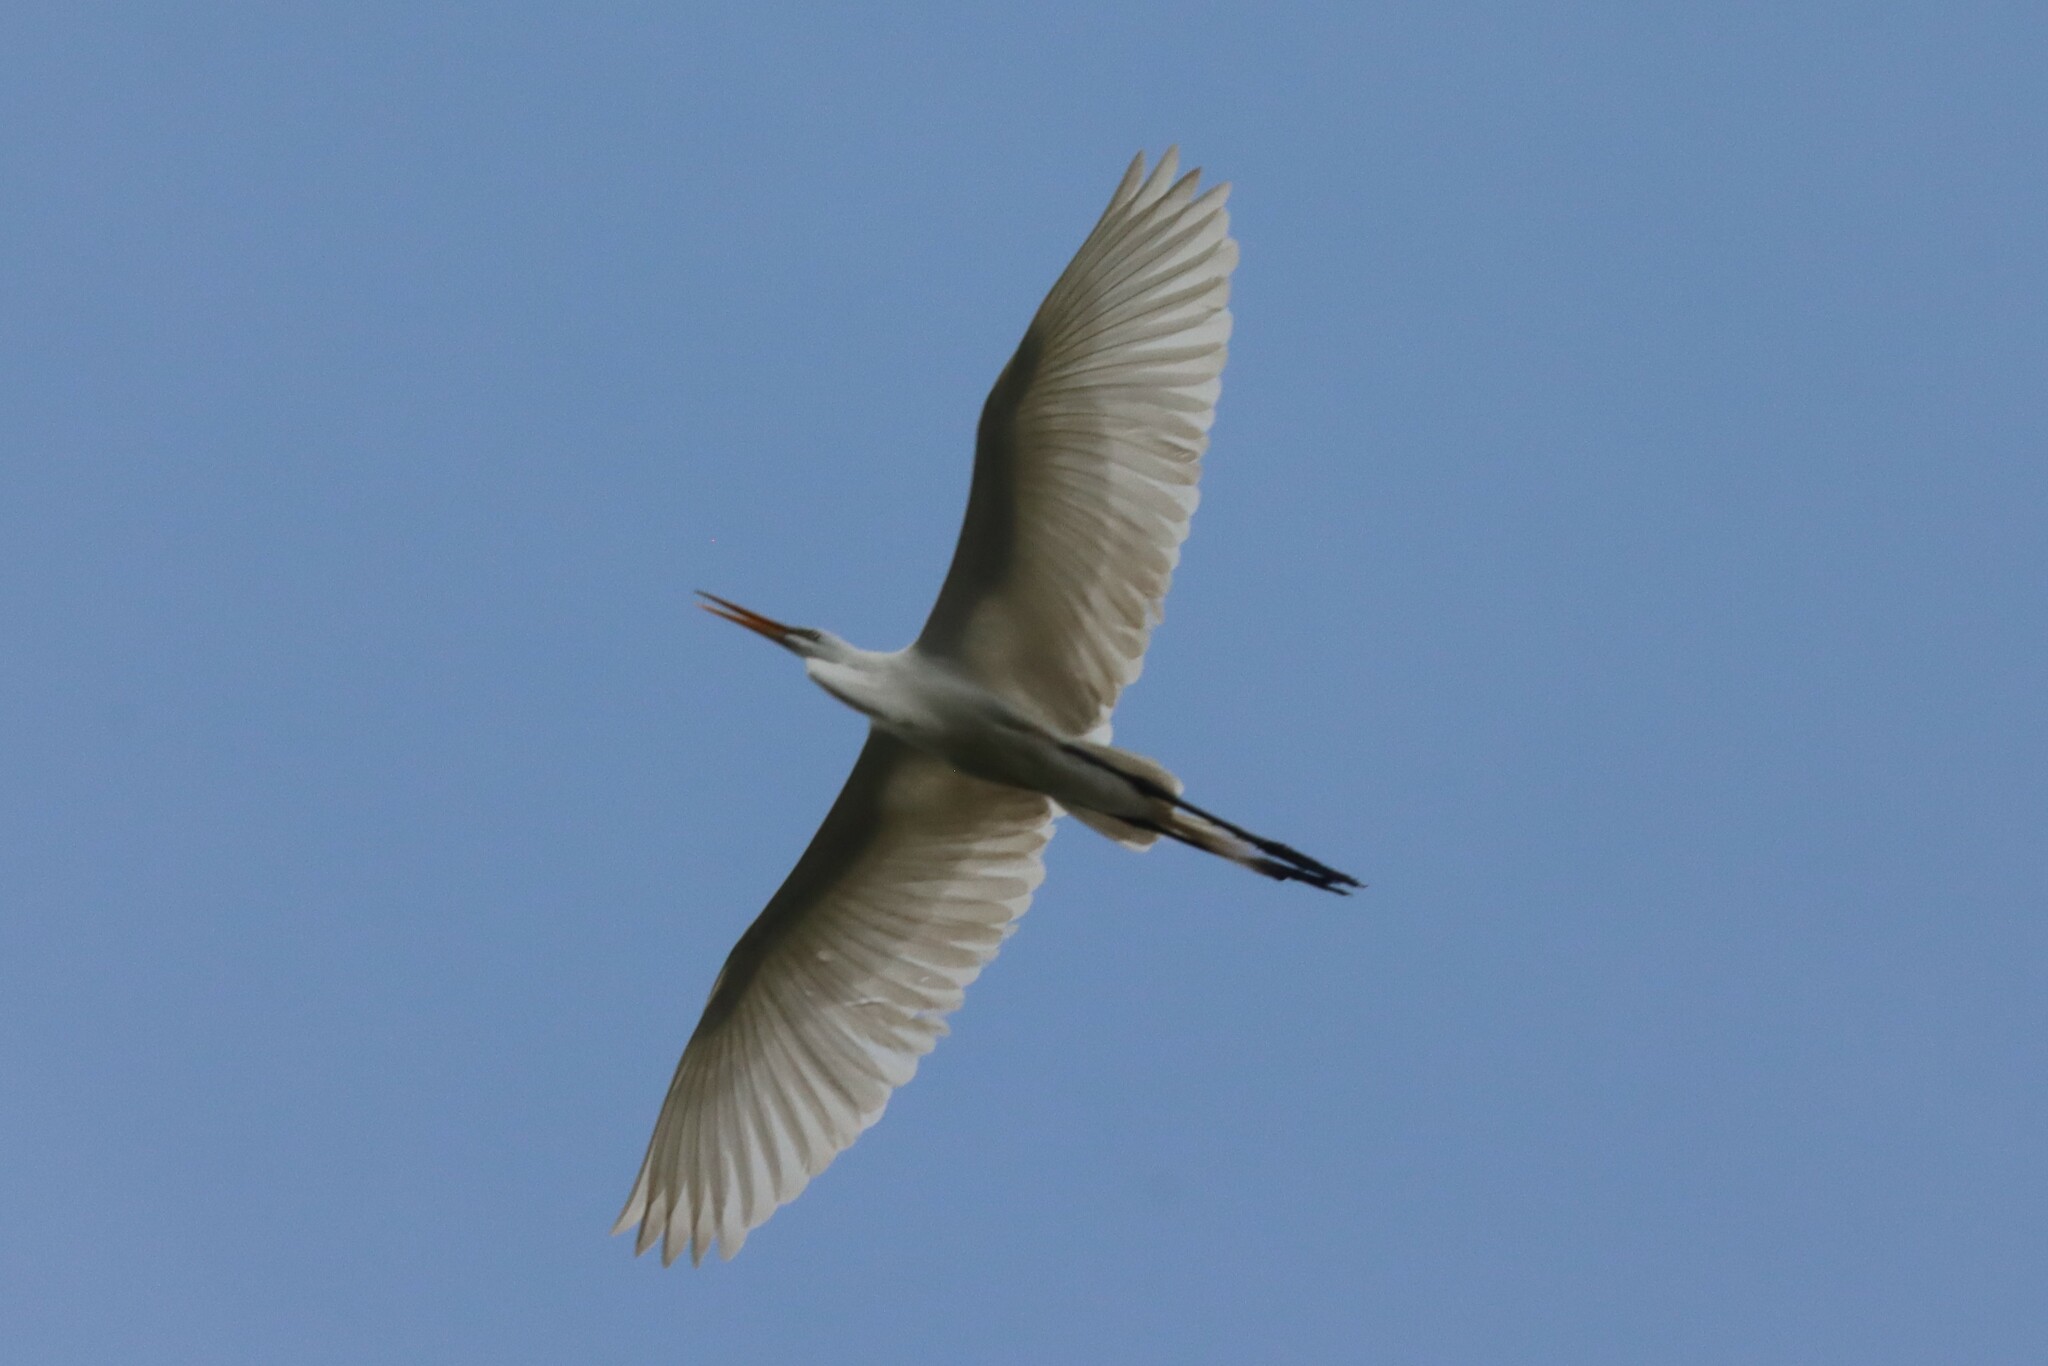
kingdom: Animalia
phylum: Chordata
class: Aves
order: Pelecaniformes
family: Ardeidae
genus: Ardea
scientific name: Ardea alba
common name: Great egret
